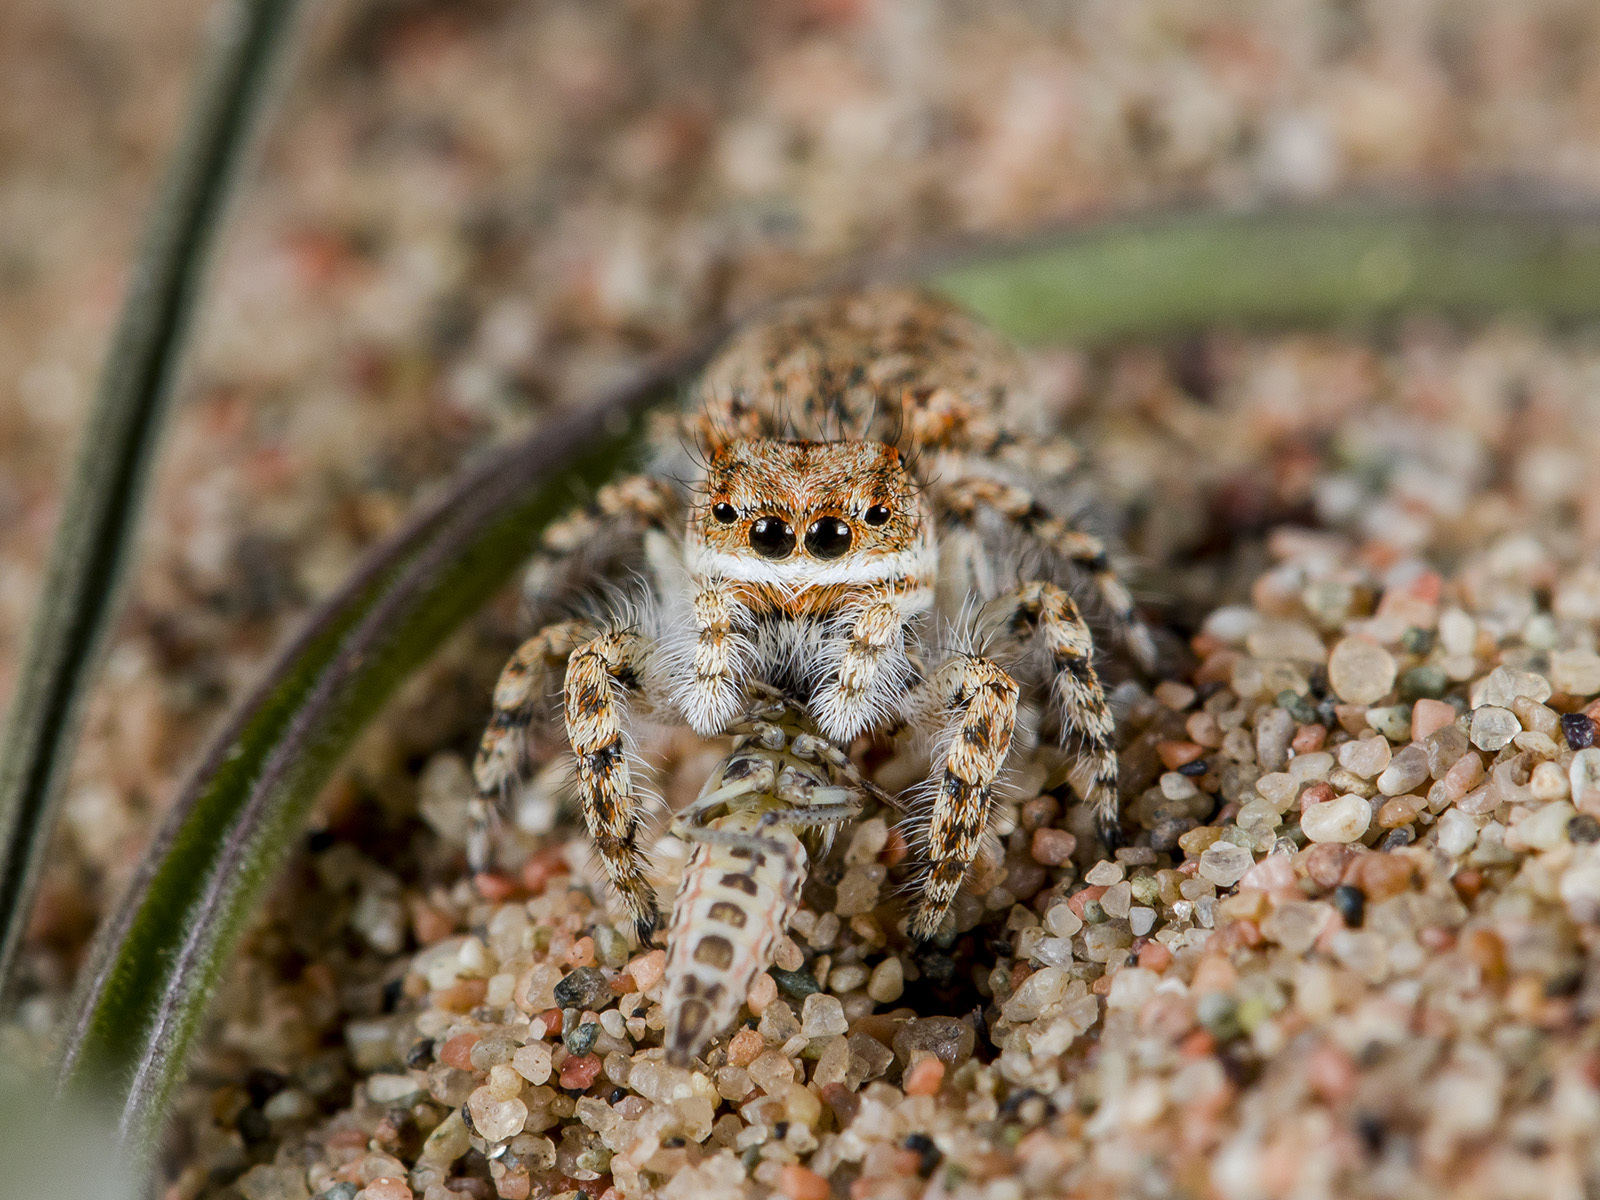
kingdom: Animalia
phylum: Arthropoda
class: Arachnida
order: Araneae
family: Salticidae
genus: Yllenus
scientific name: Yllenus uiguricus
